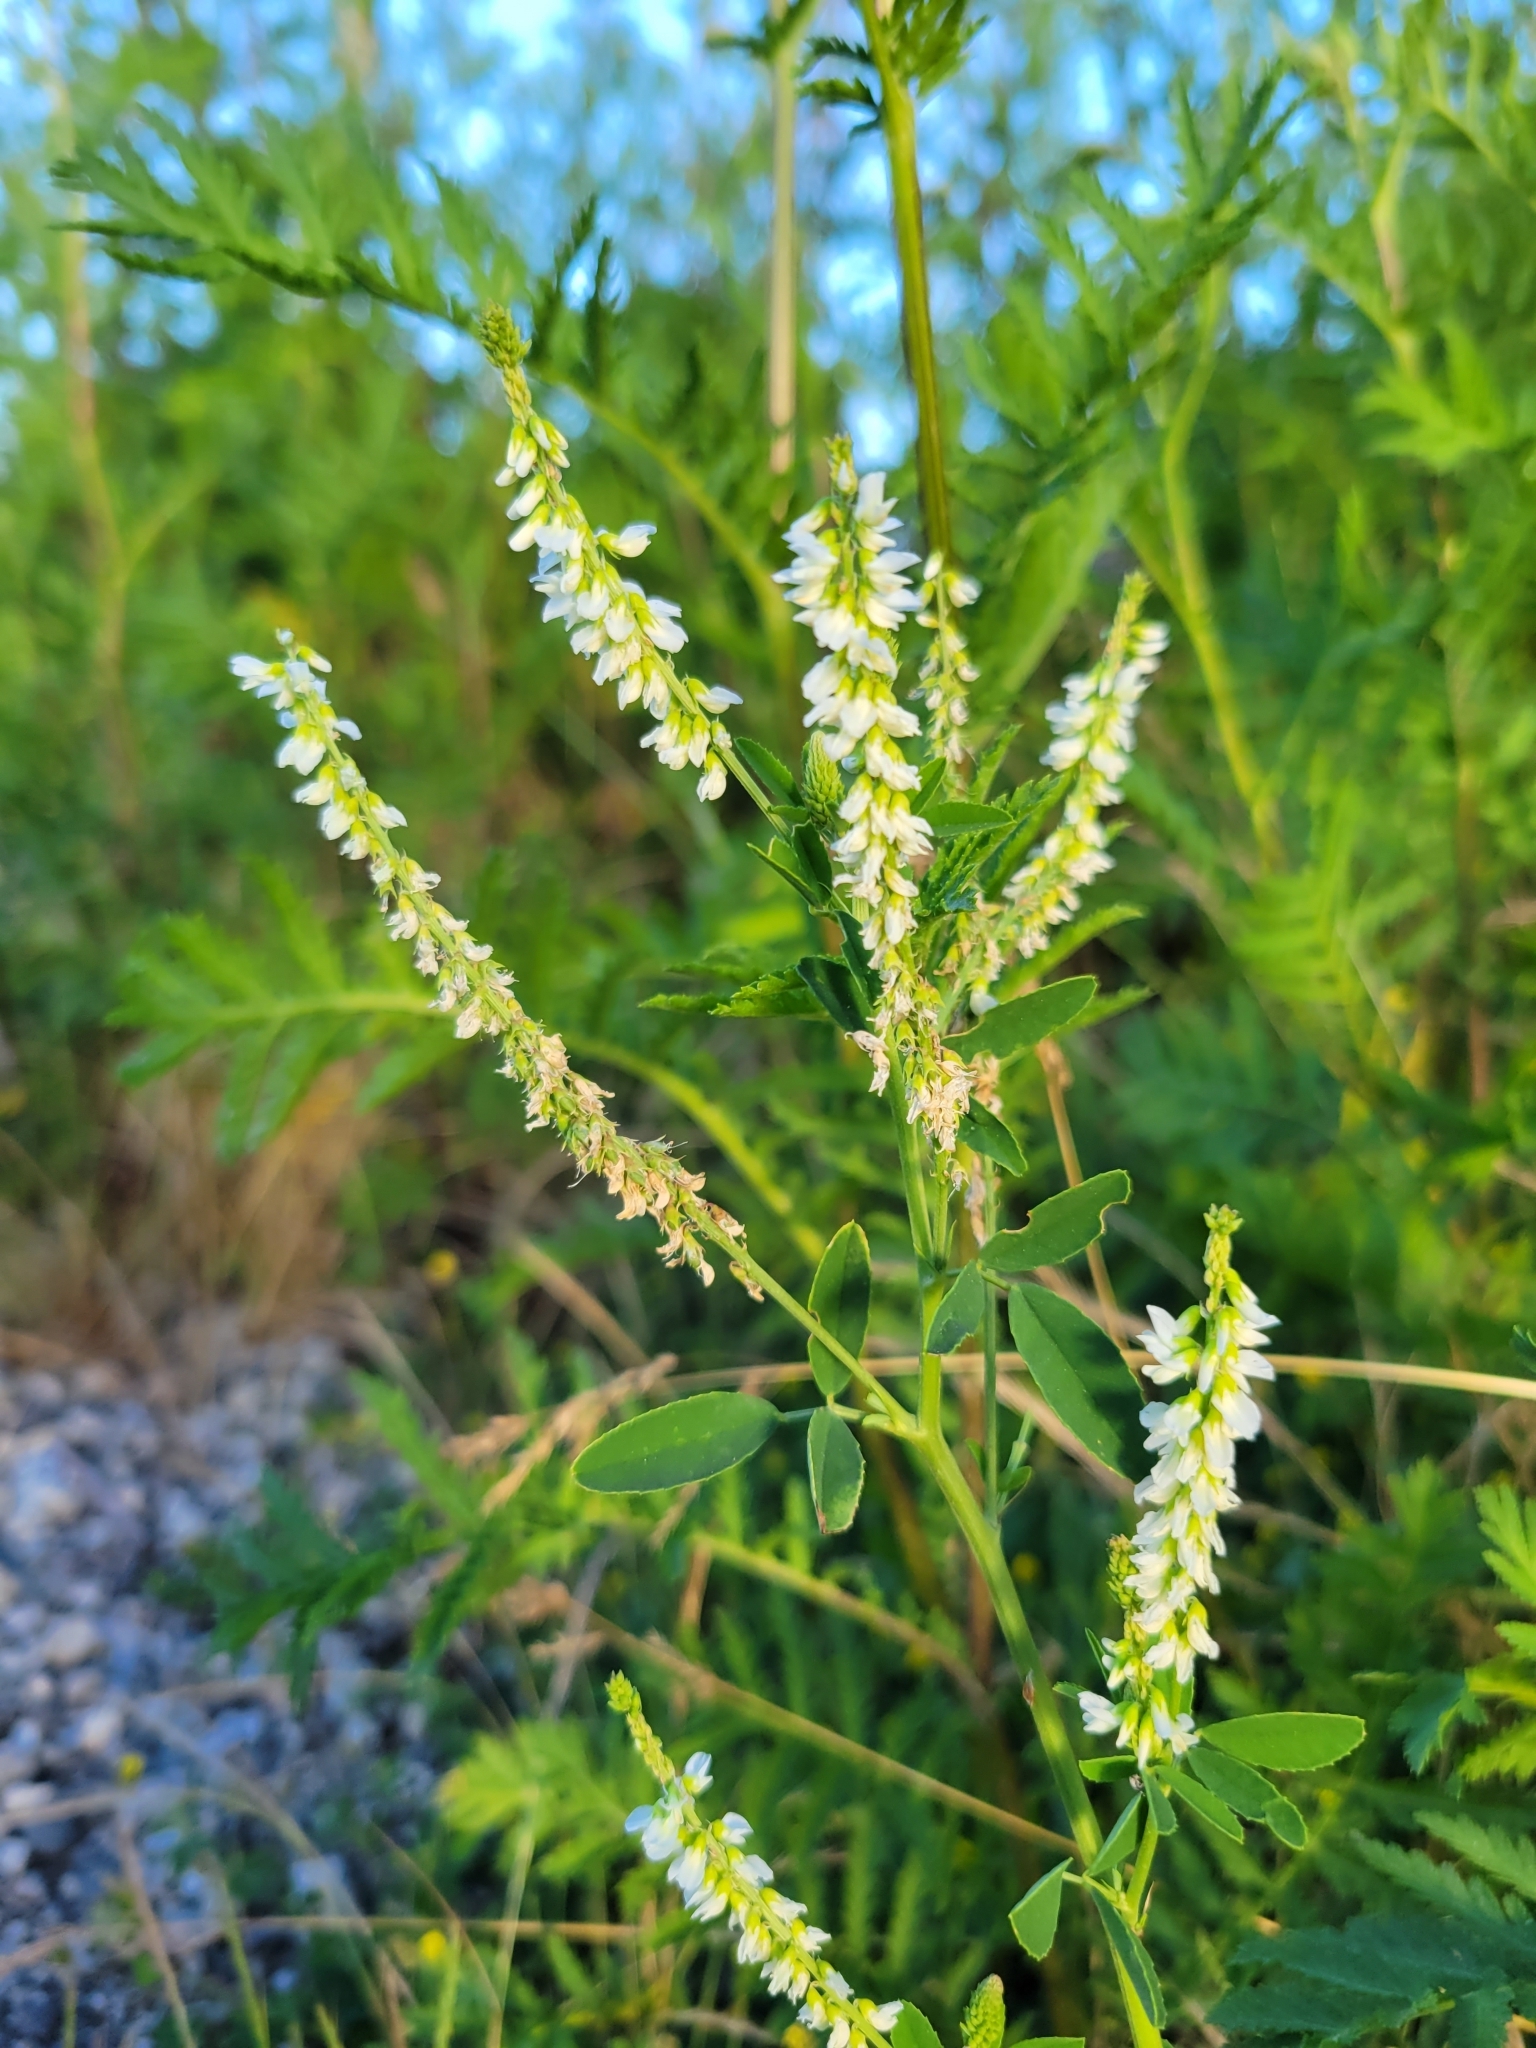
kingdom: Plantae
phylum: Tracheophyta
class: Magnoliopsida
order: Fabales
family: Fabaceae
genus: Melilotus
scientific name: Melilotus albus
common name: White melilot
